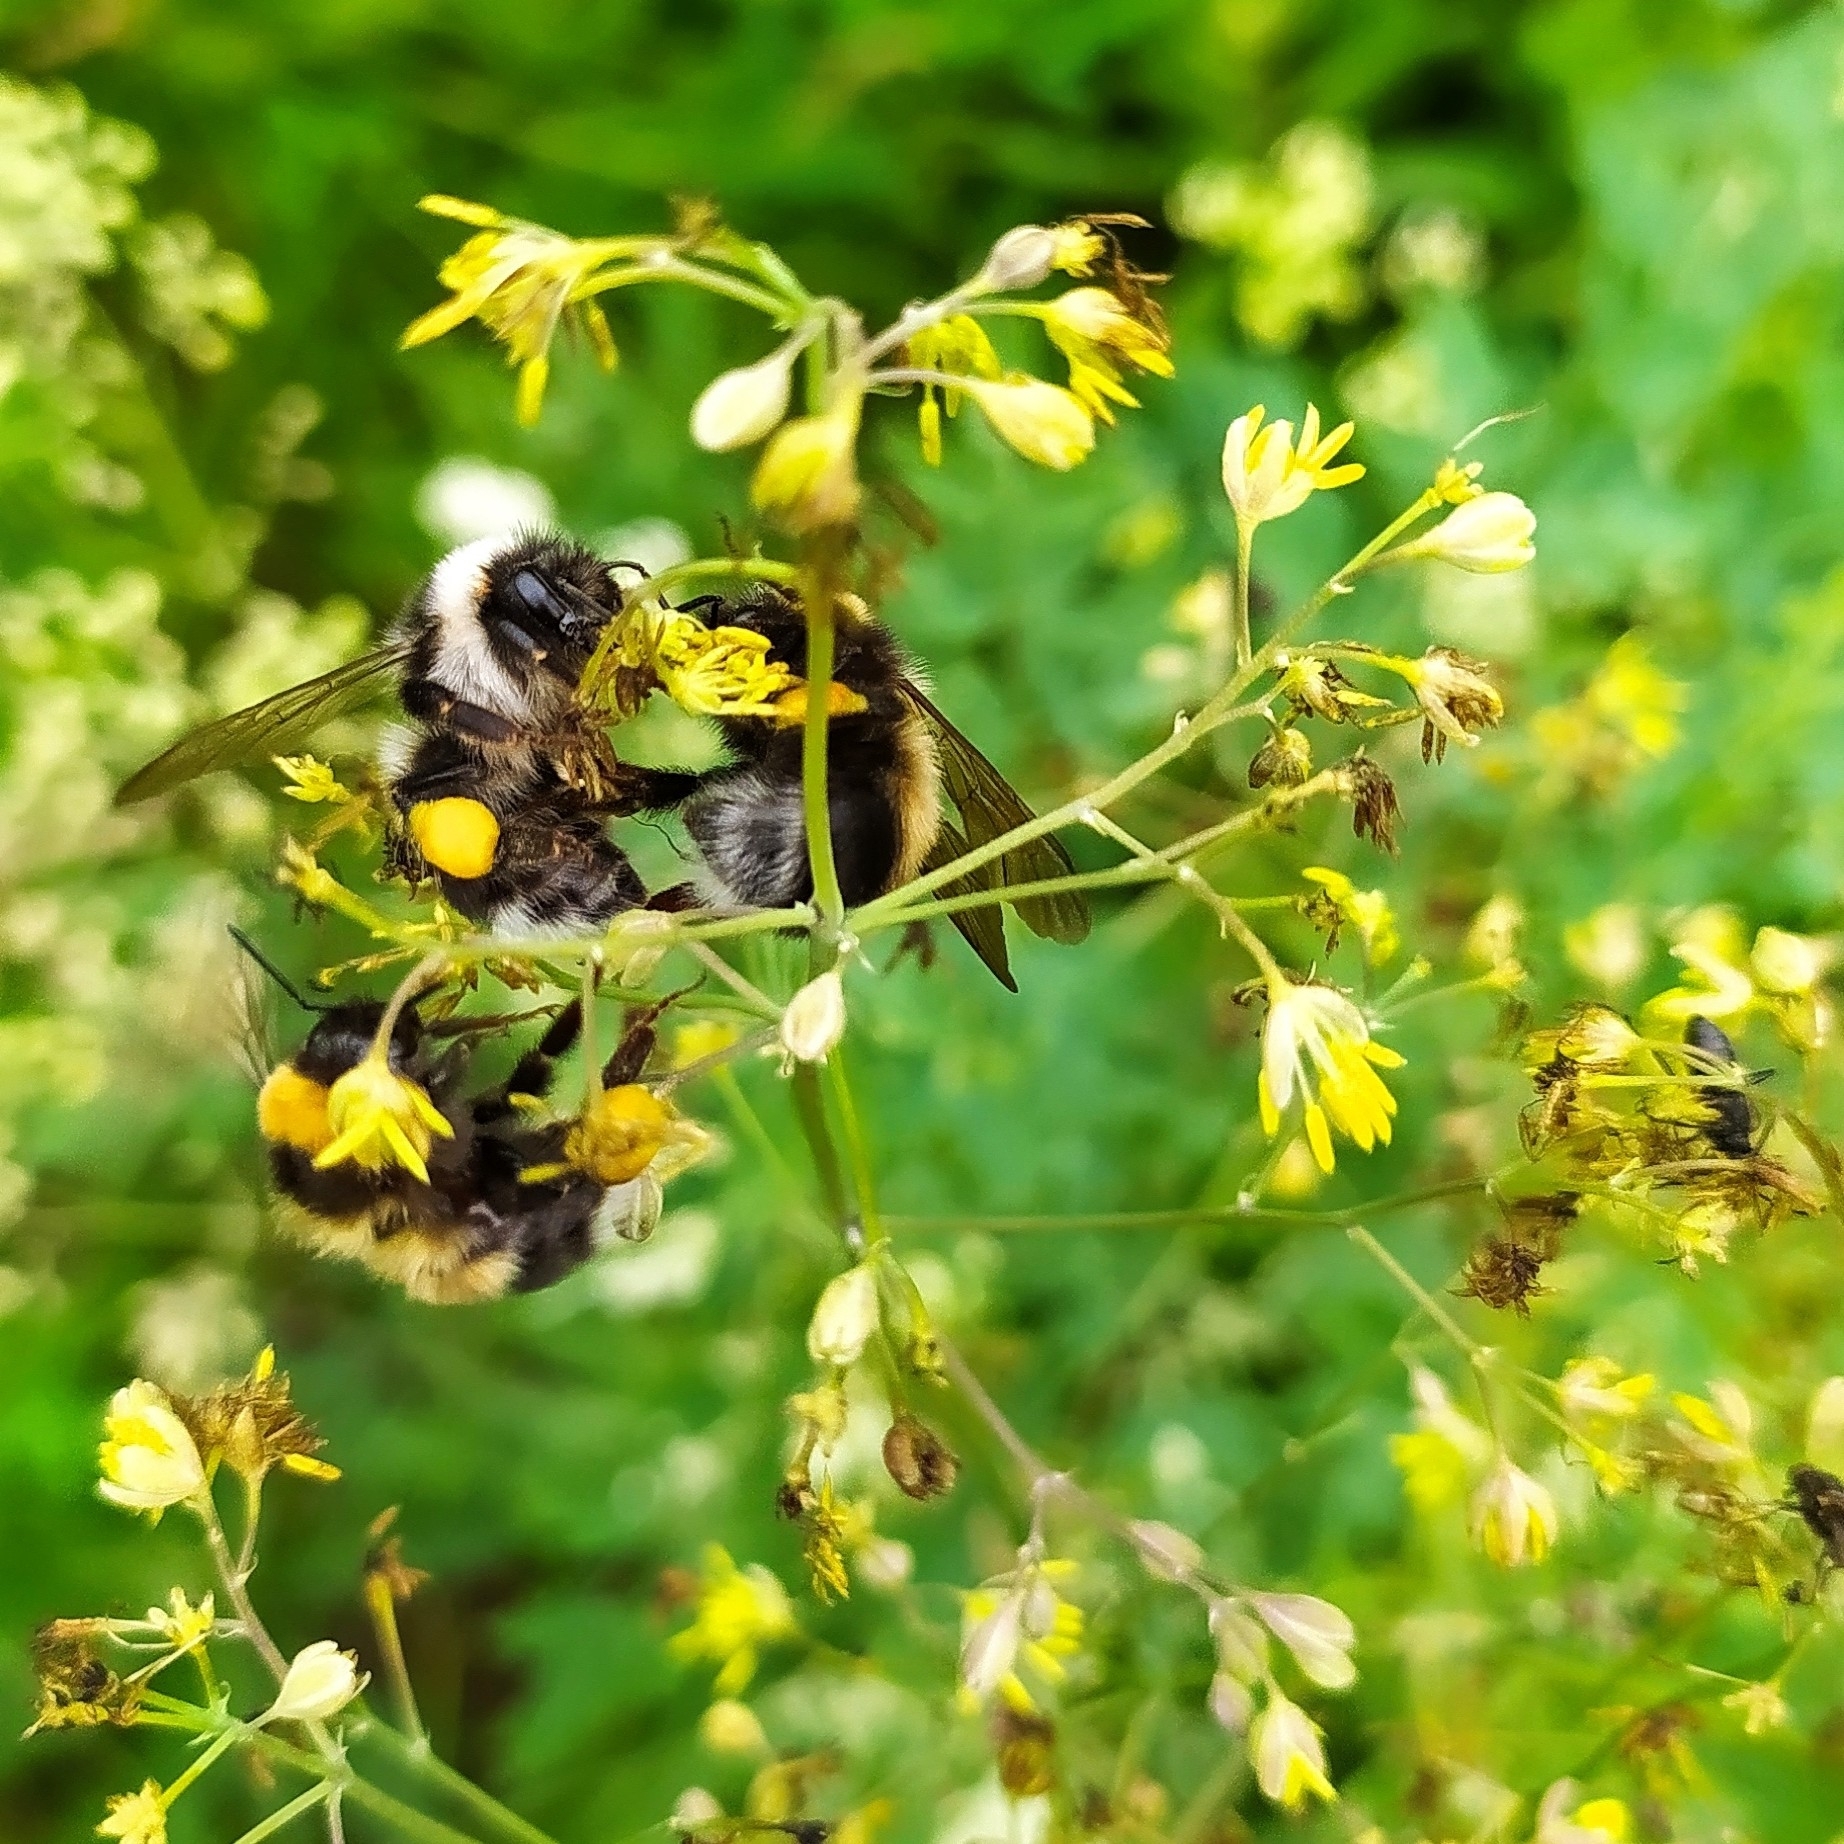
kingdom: Animalia
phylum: Arthropoda
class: Insecta
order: Hymenoptera
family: Apidae
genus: Bombus
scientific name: Bombus
